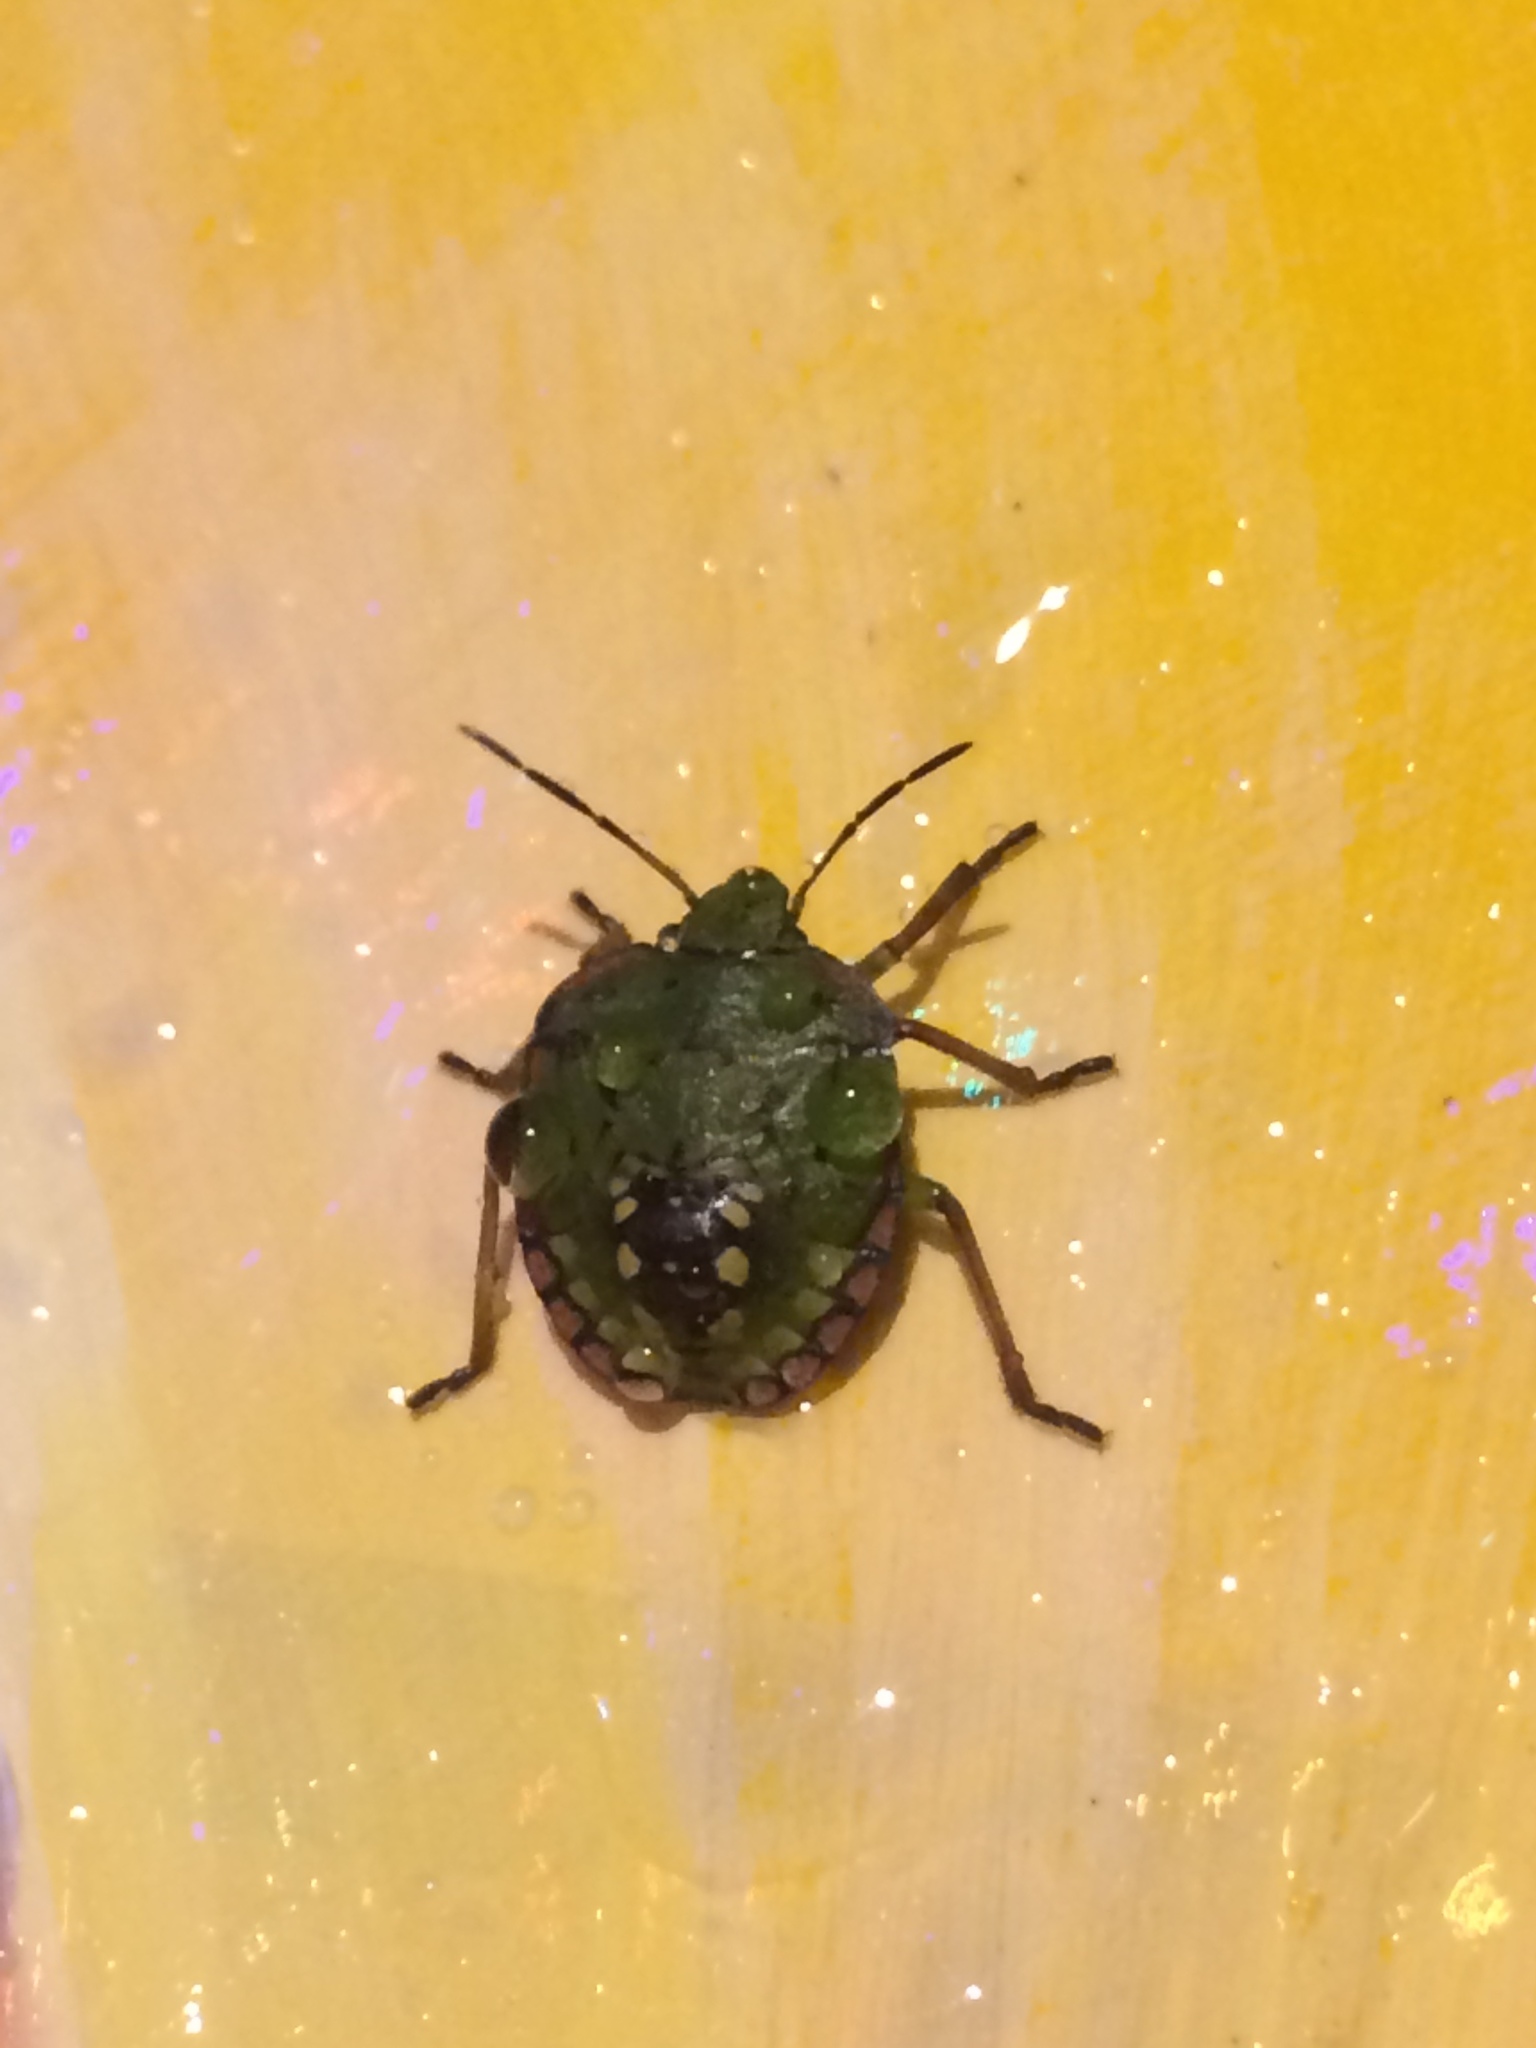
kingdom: Animalia
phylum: Arthropoda
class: Insecta
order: Hemiptera
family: Pentatomidae
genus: Nezara
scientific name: Nezara viridula
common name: Southern green stink bug
